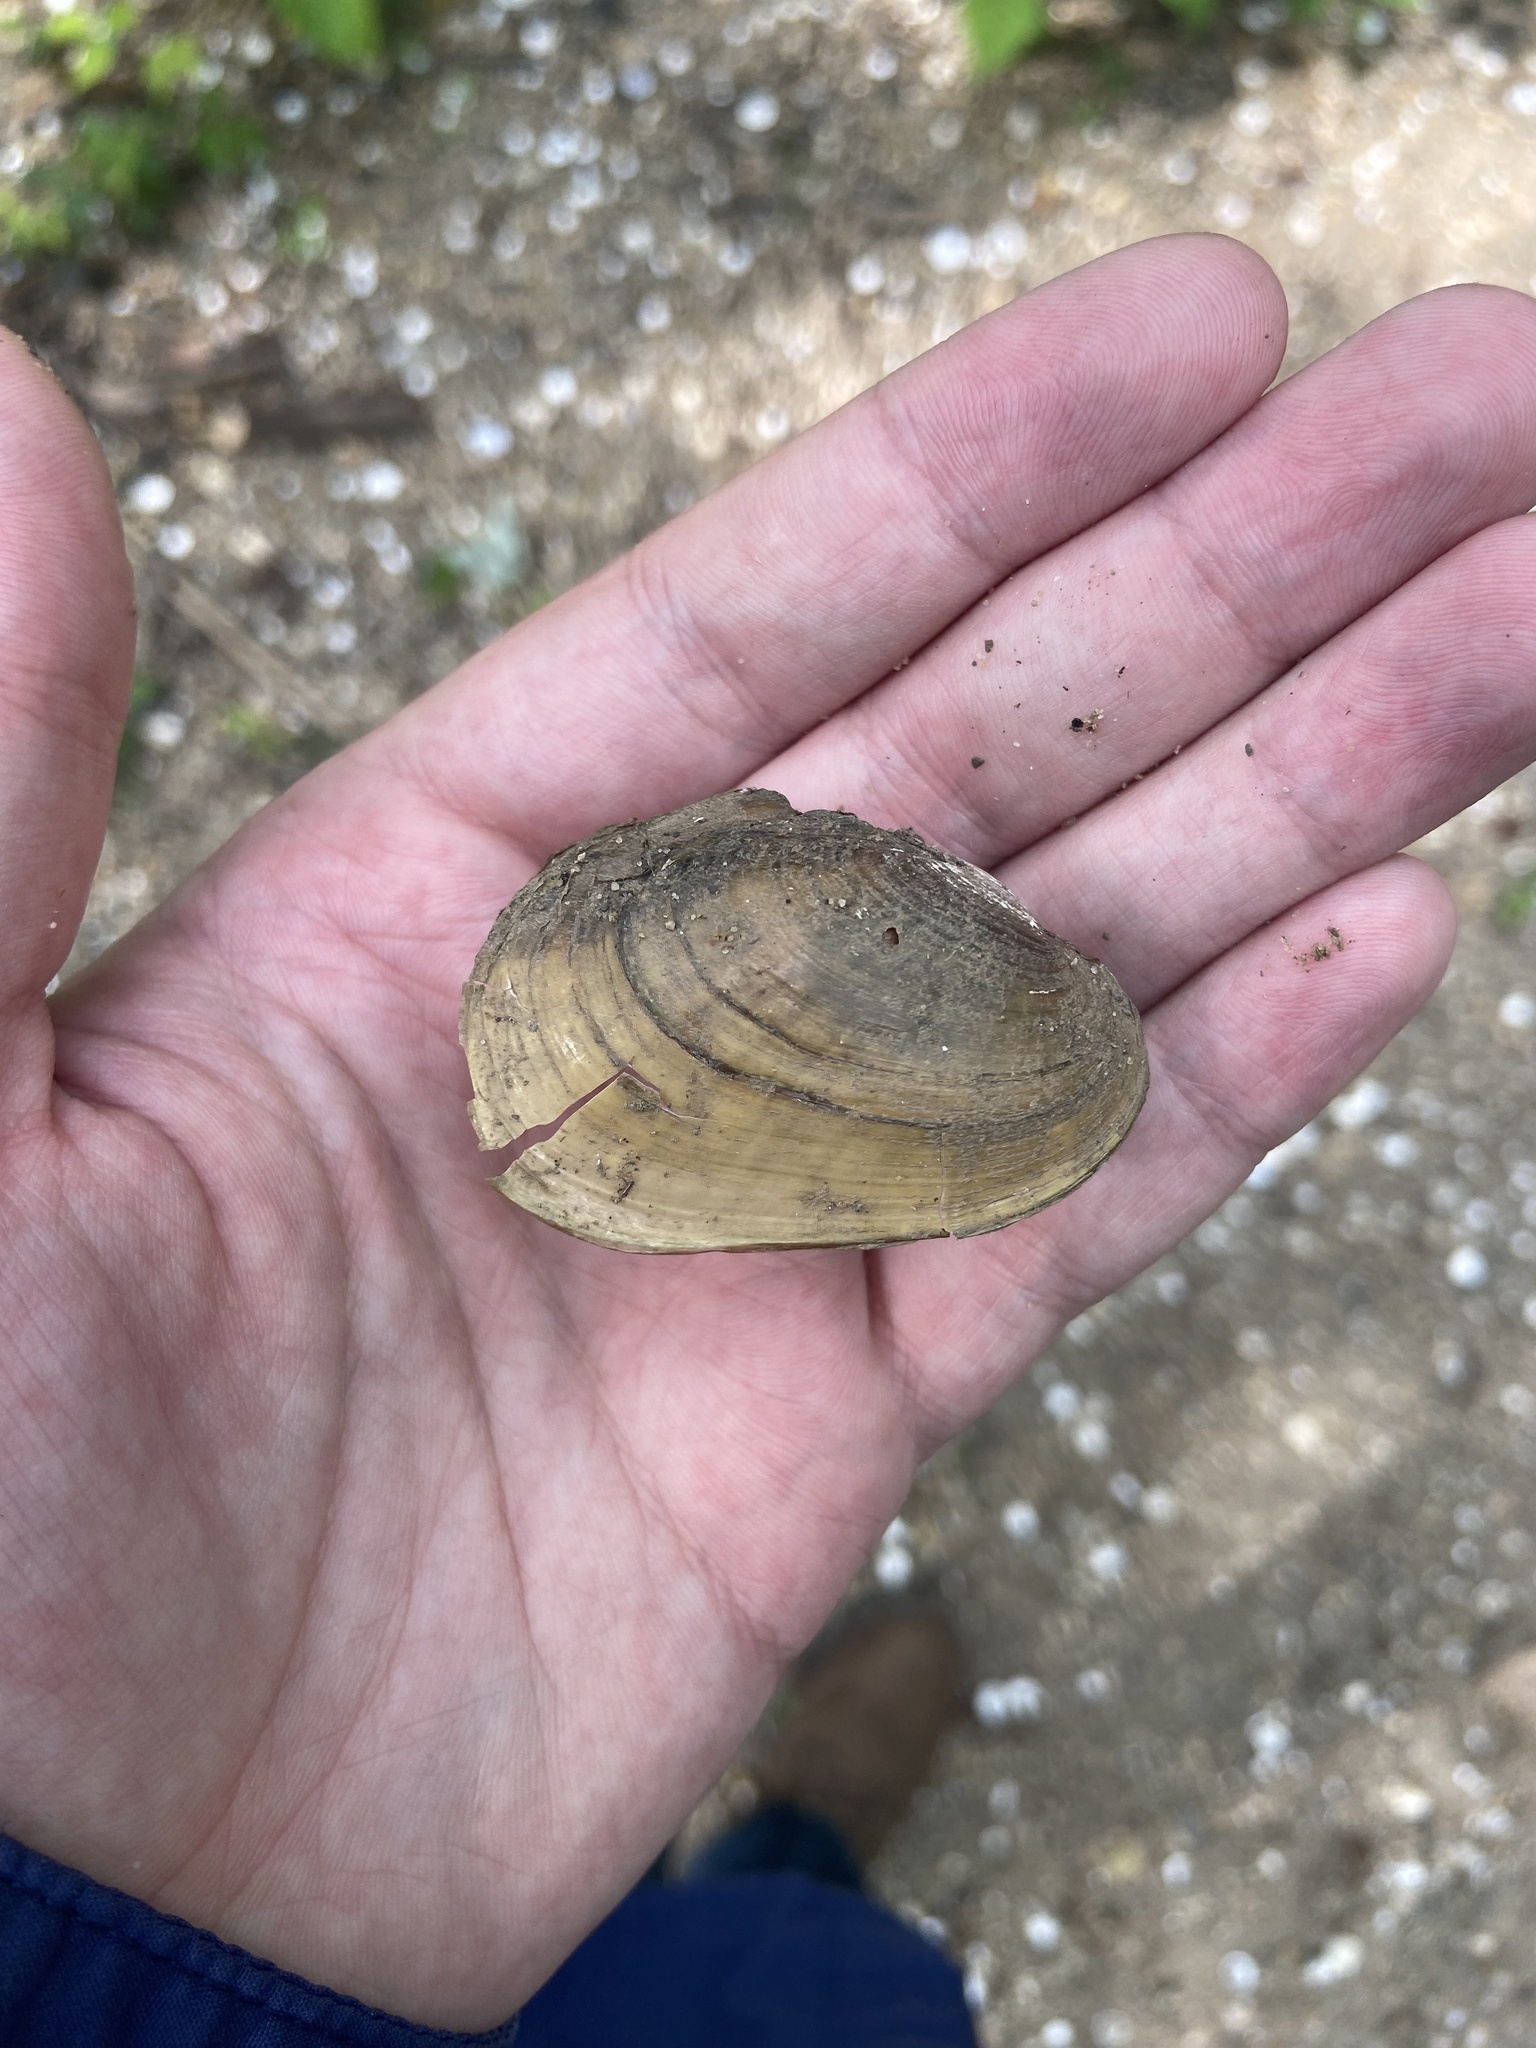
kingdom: Animalia
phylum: Mollusca
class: Bivalvia
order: Unionida
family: Unionidae
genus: Potamilus
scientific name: Potamilus fragilis
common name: Fragile papershell
